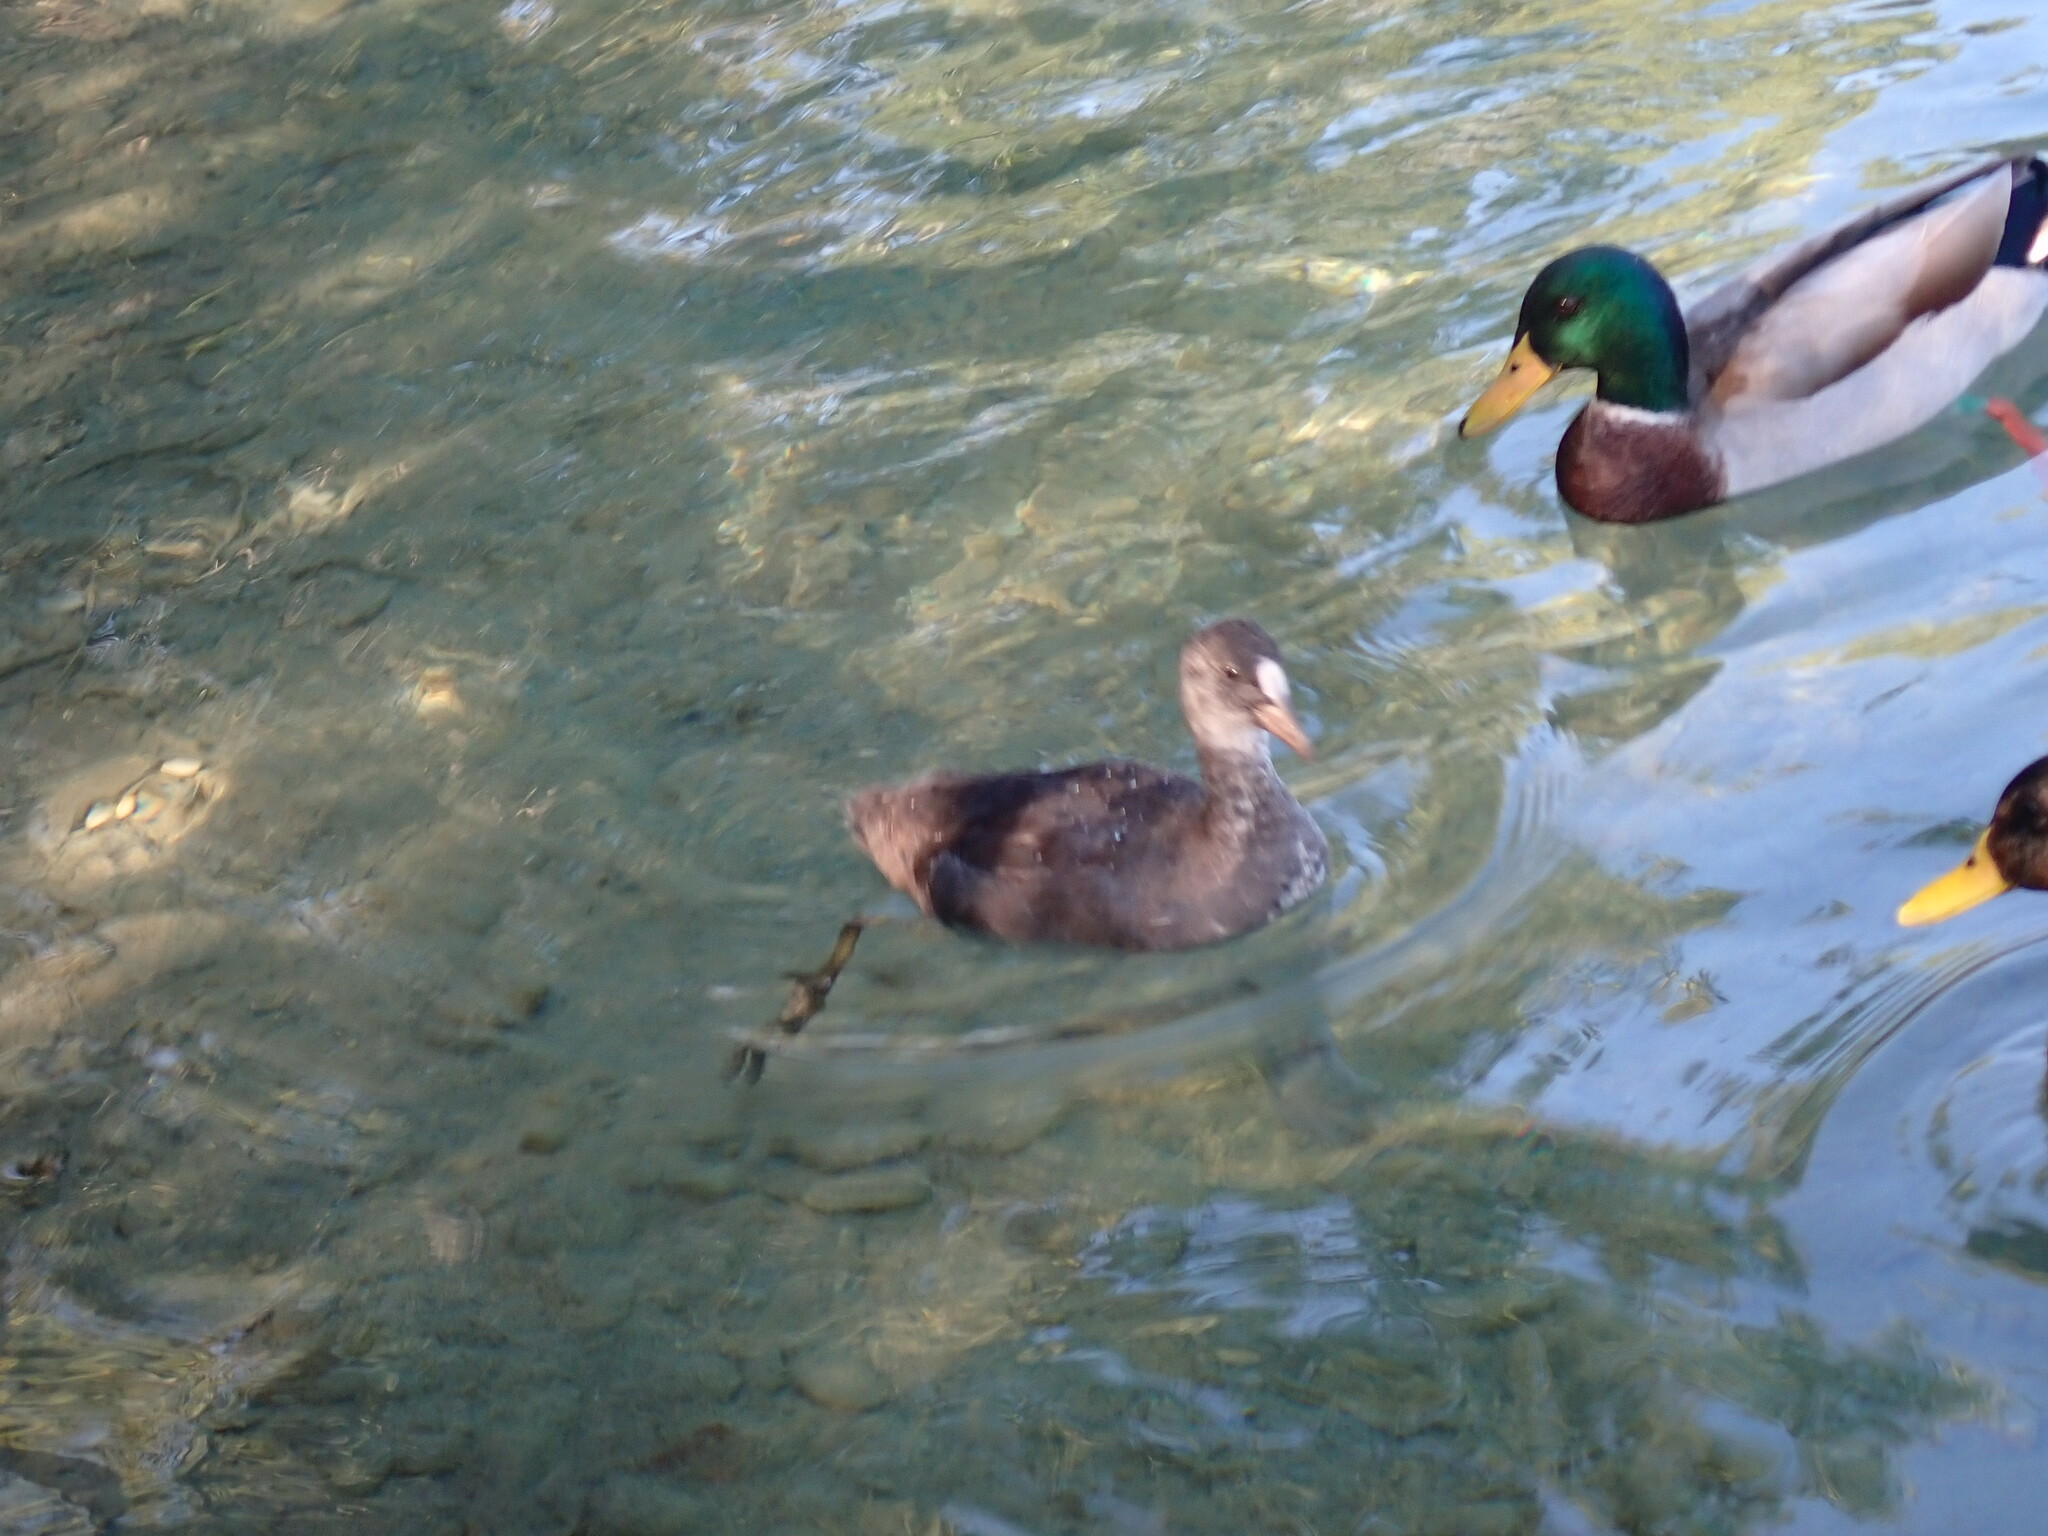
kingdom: Animalia
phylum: Chordata
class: Aves
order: Gruiformes
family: Rallidae
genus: Fulica
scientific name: Fulica atra
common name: Eurasian coot
